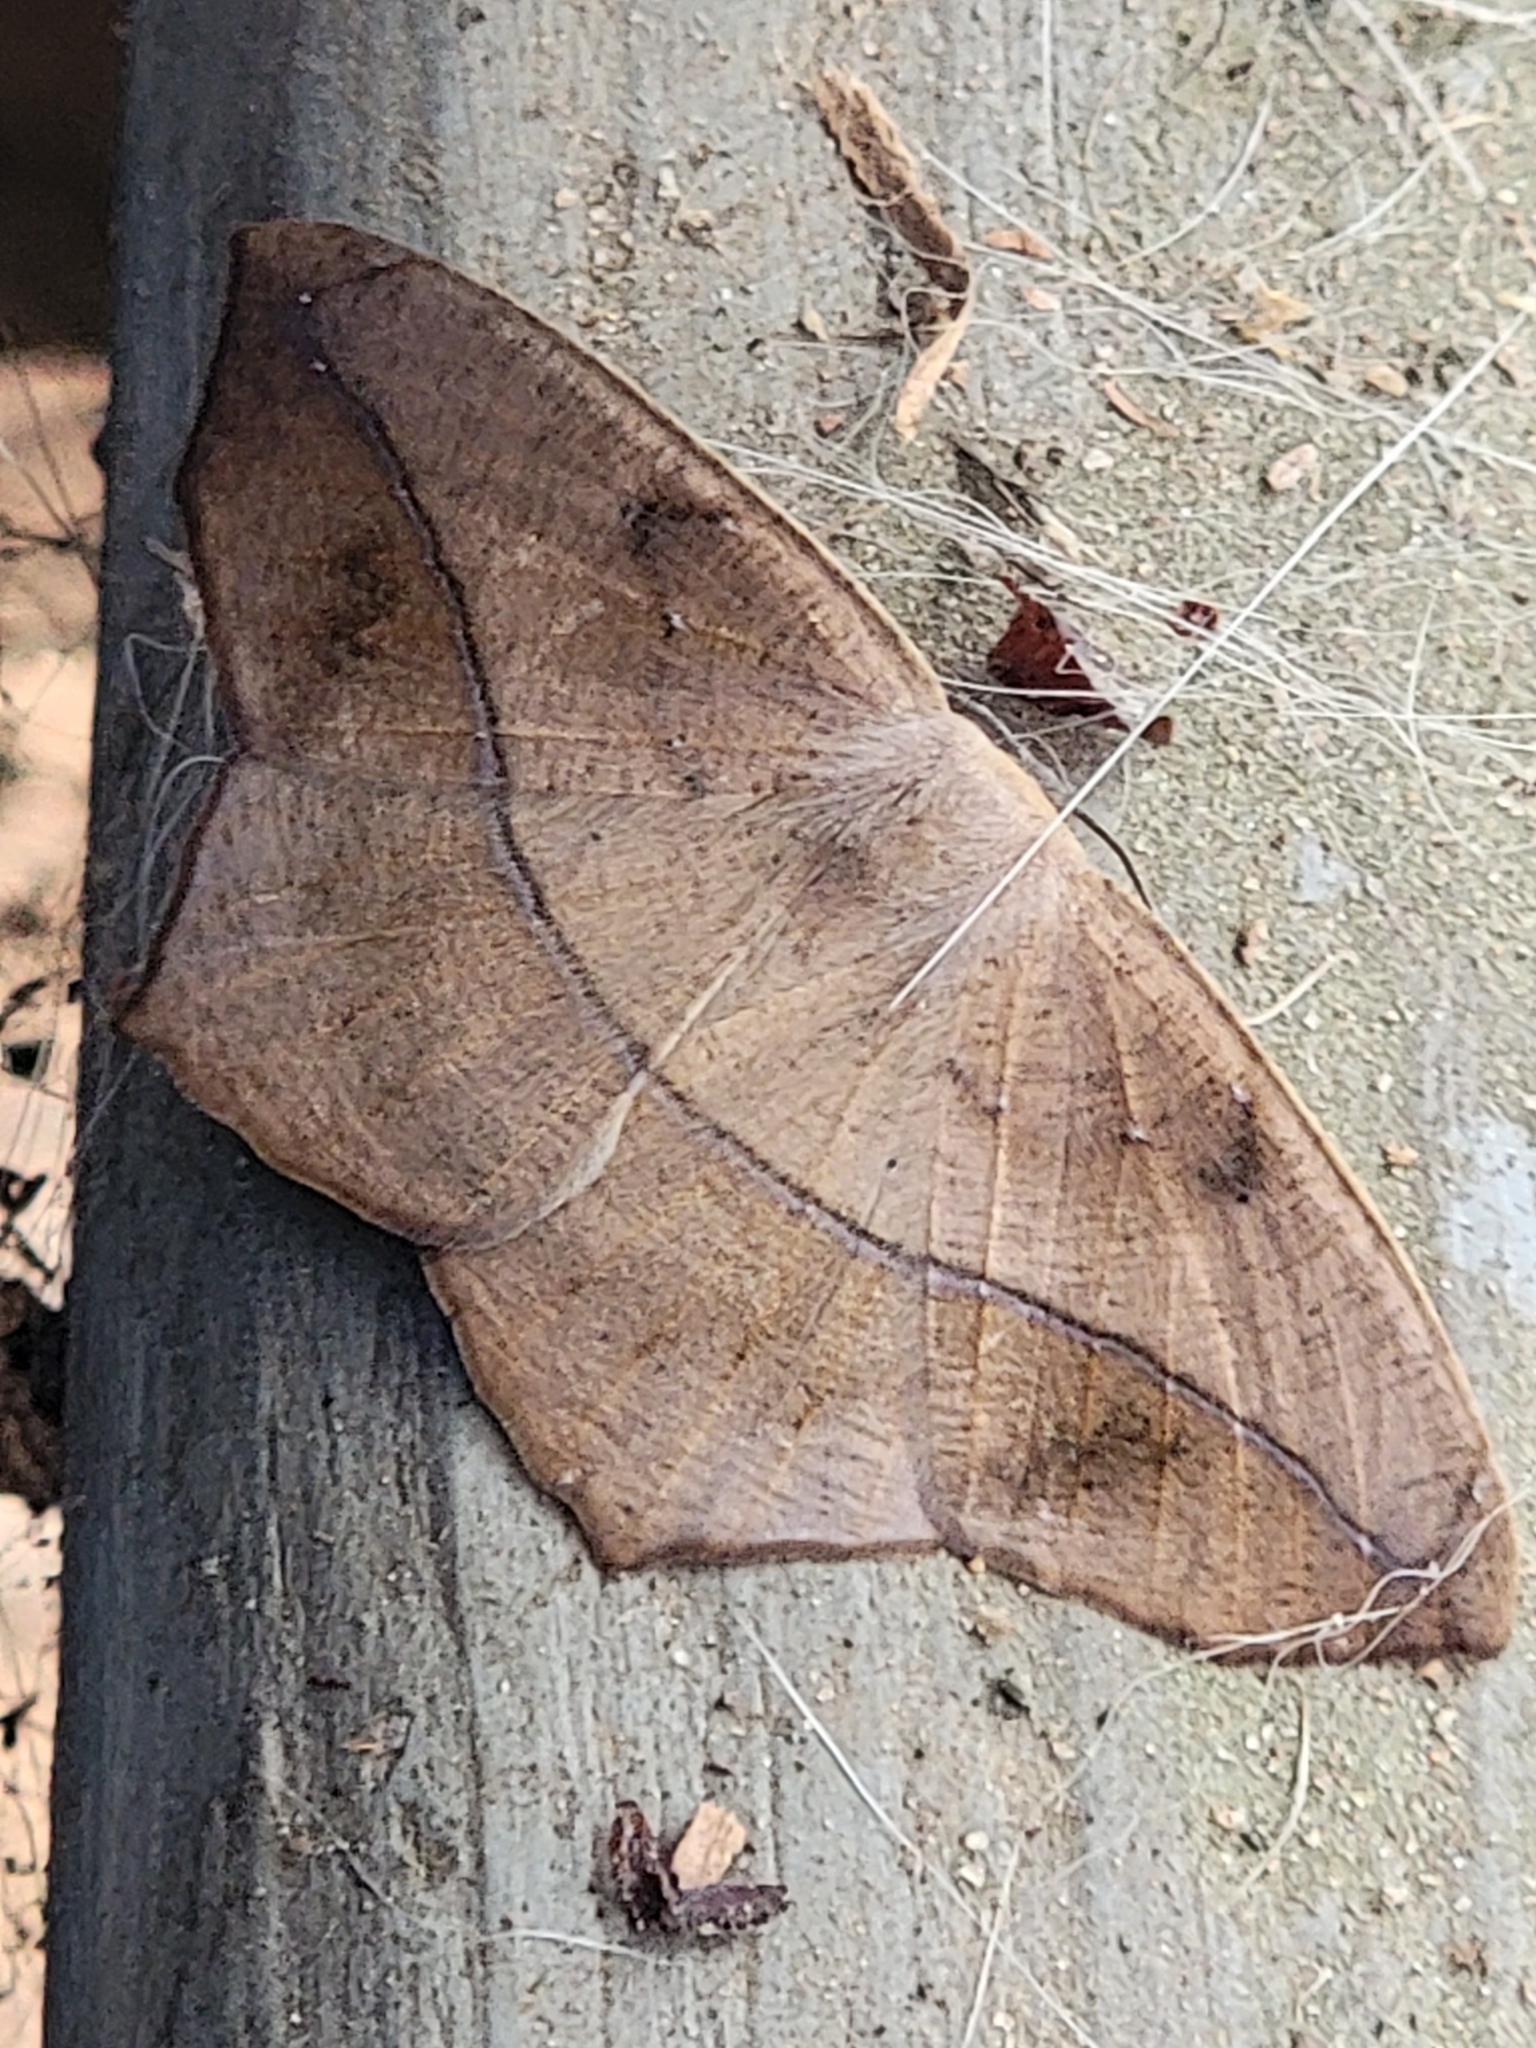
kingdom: Animalia
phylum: Arthropoda
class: Insecta
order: Lepidoptera
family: Geometridae
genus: Prochoerodes
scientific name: Prochoerodes lineola
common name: Large maple spanworm
